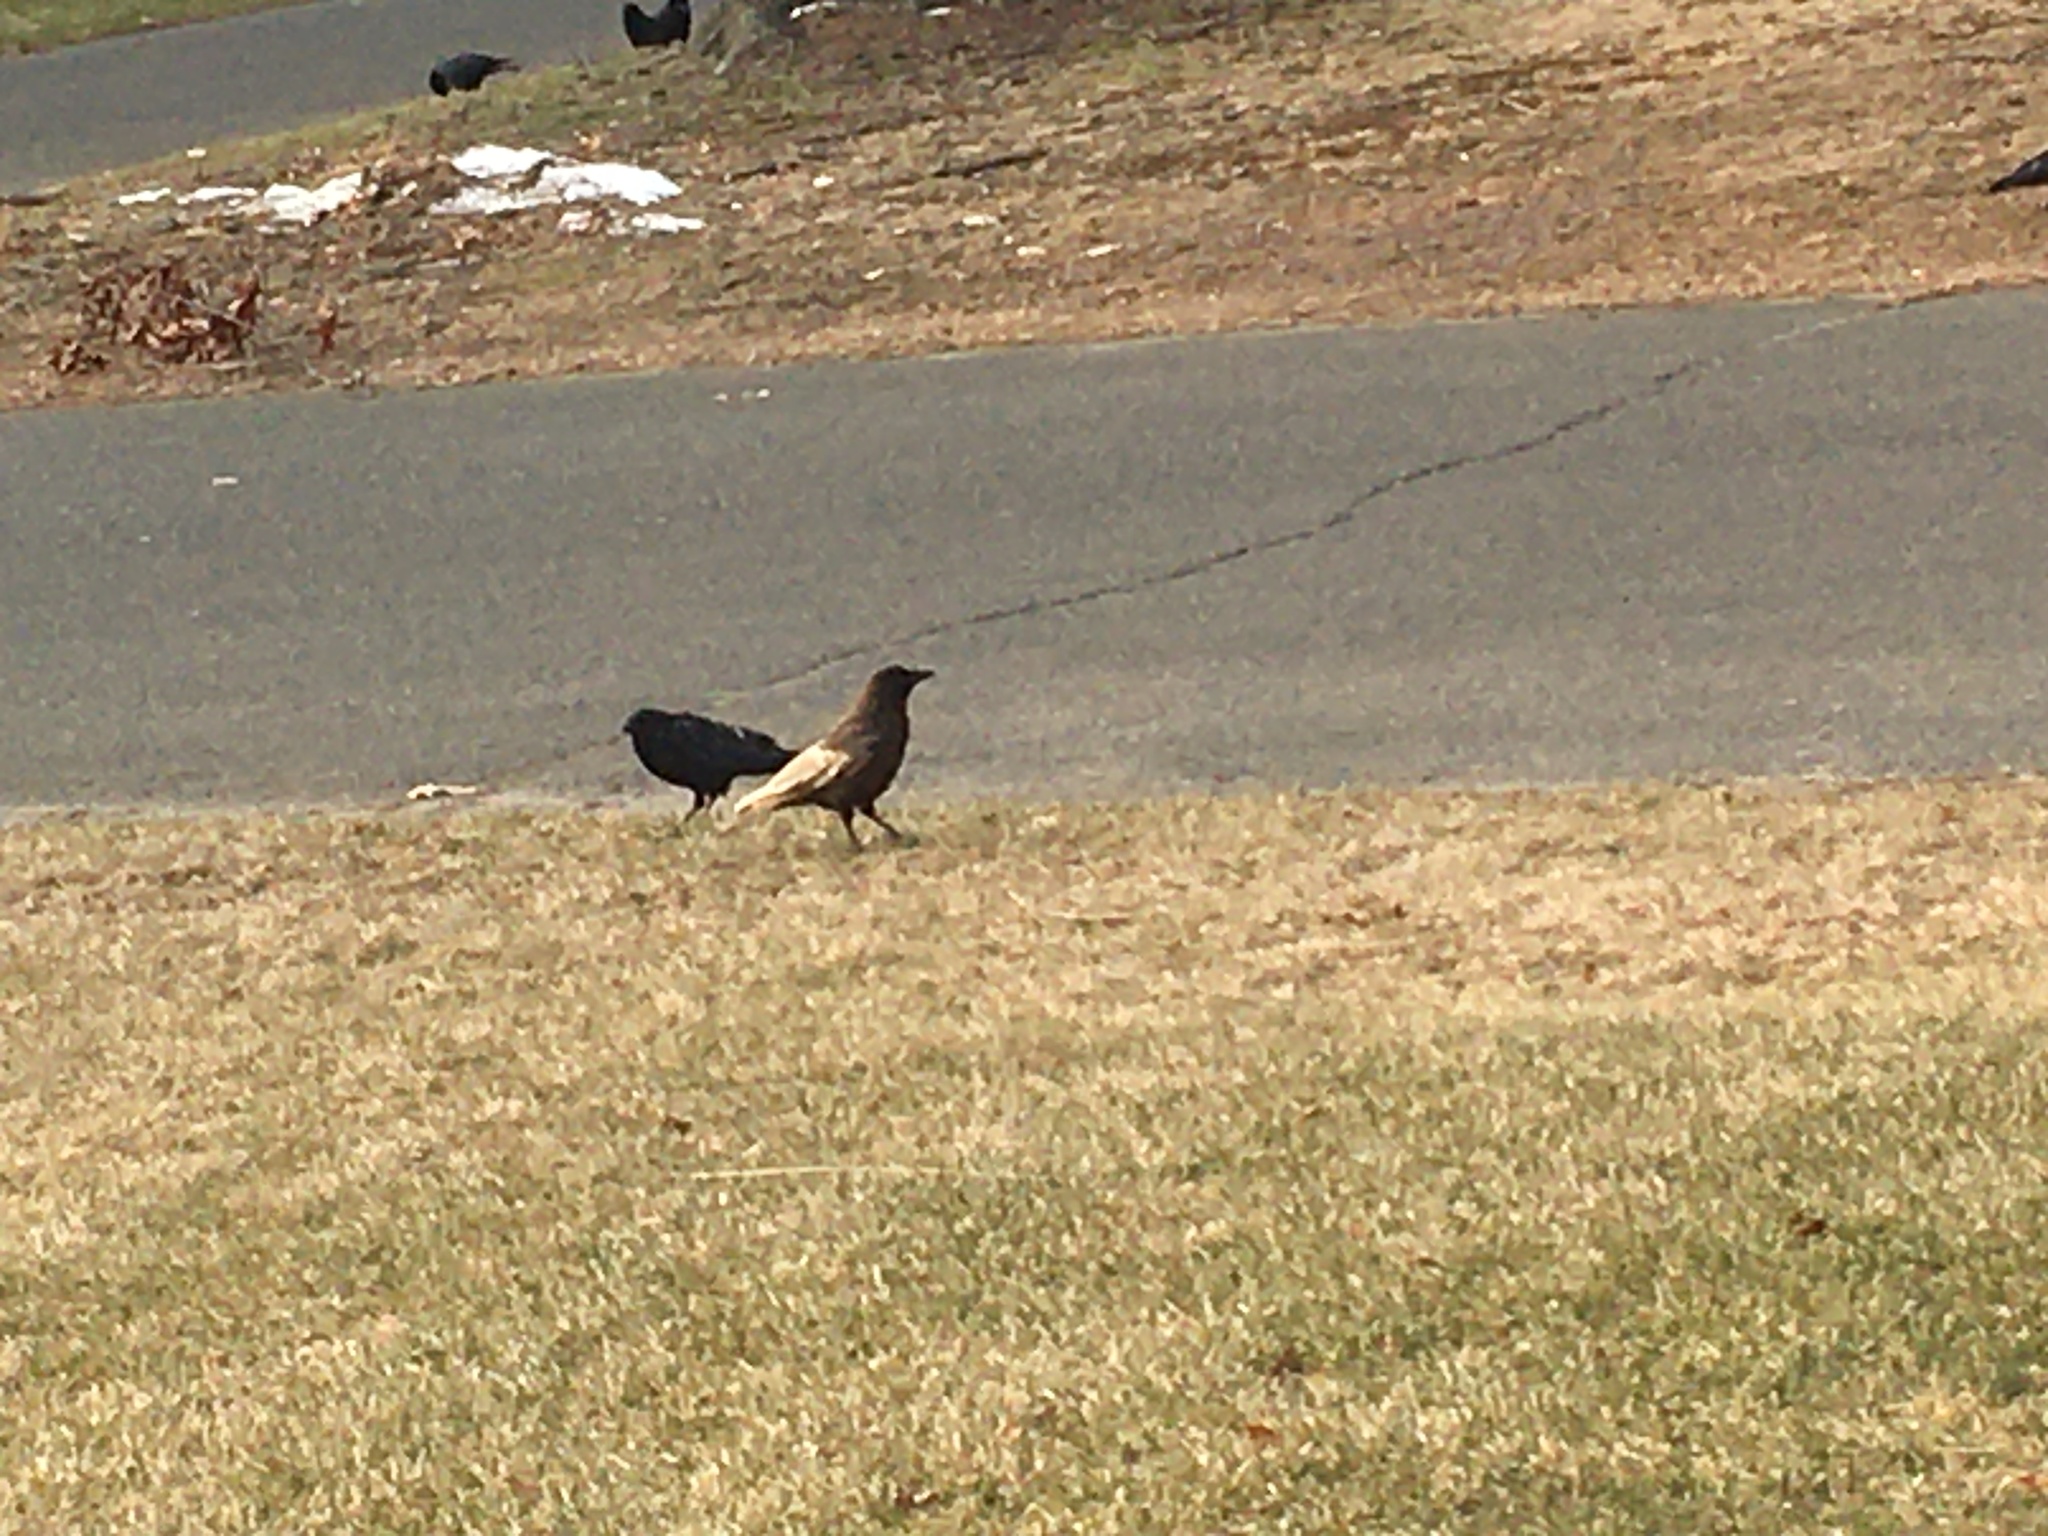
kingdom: Animalia
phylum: Chordata
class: Aves
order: Passeriformes
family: Corvidae
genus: Corvus
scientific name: Corvus brachyrhynchos
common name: American crow
